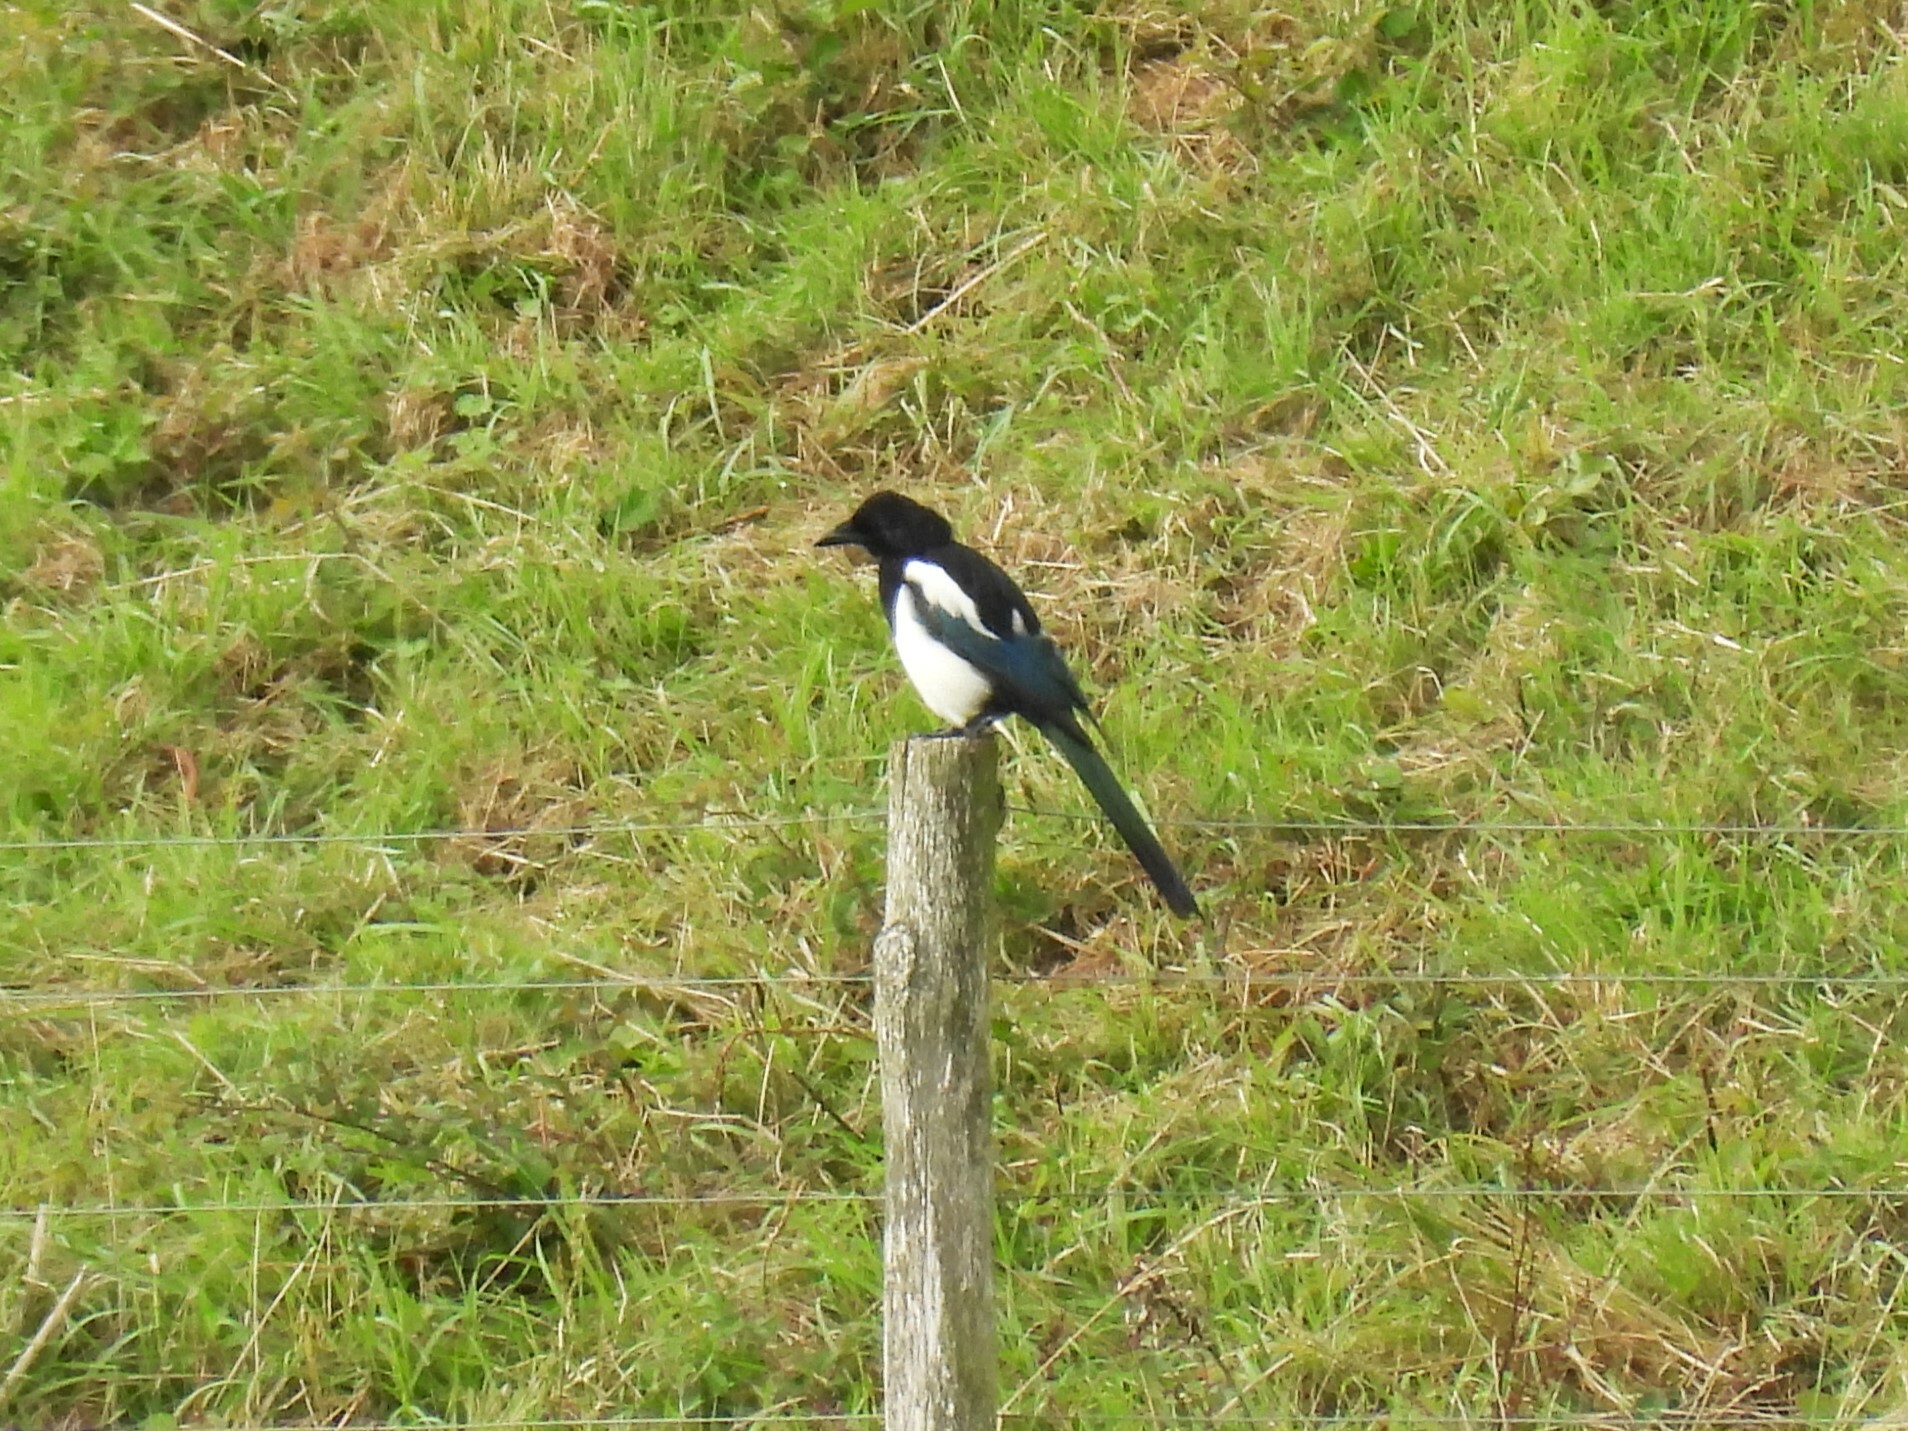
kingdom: Animalia
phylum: Chordata
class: Aves
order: Passeriformes
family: Corvidae
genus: Pica
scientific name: Pica pica
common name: Eurasian magpie
